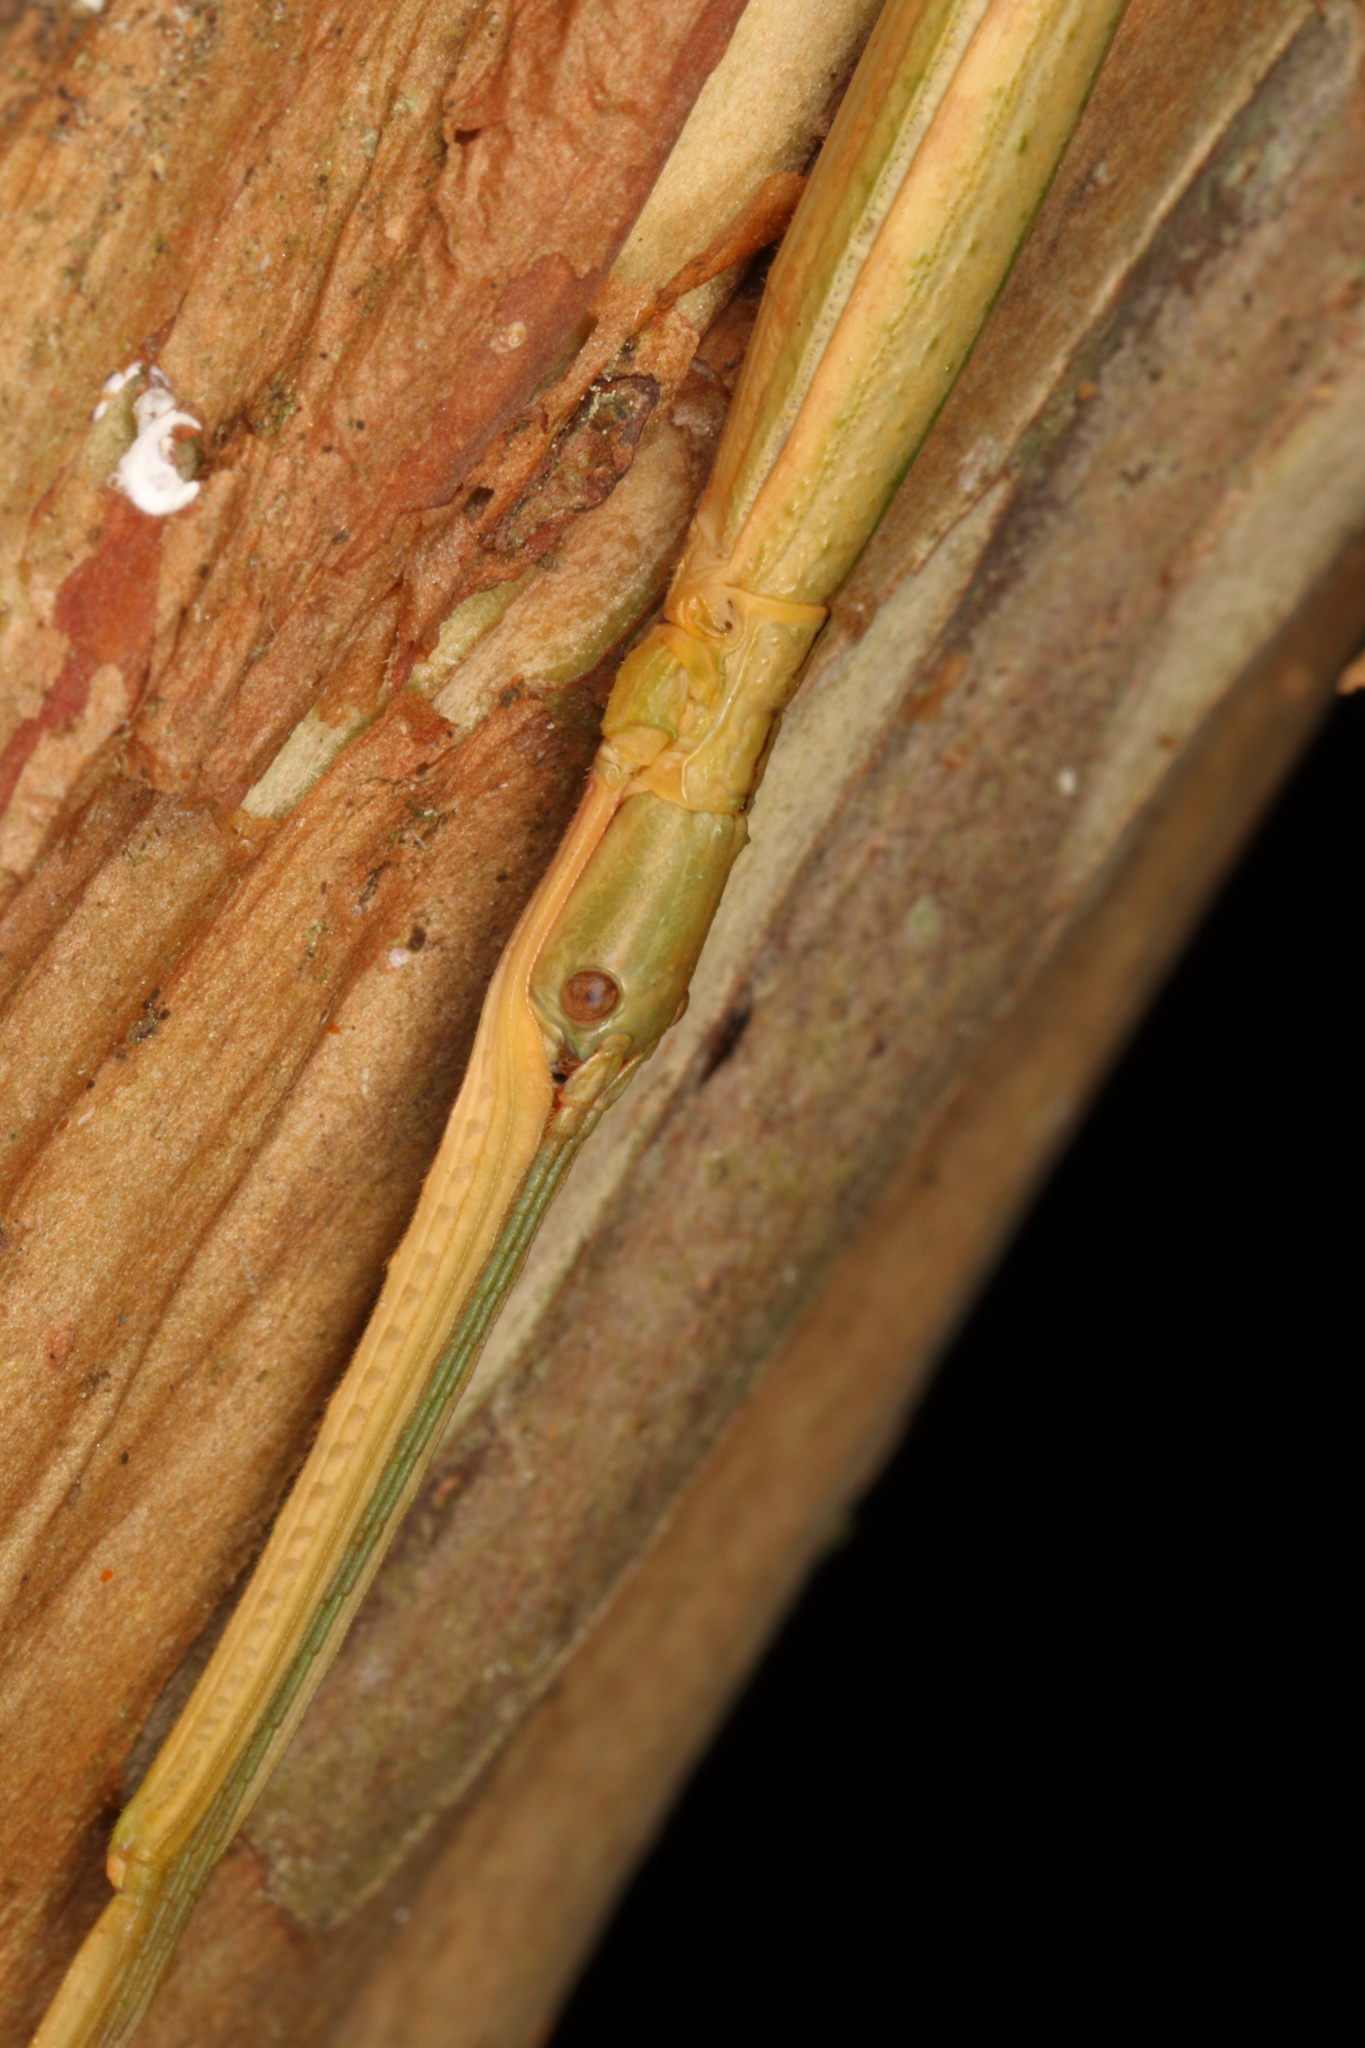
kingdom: Animalia
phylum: Arthropoda
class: Insecta
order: Phasmida
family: Phasmatidae
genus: Clitarchus
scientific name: Clitarchus hookeri
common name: Smooth stick insect
